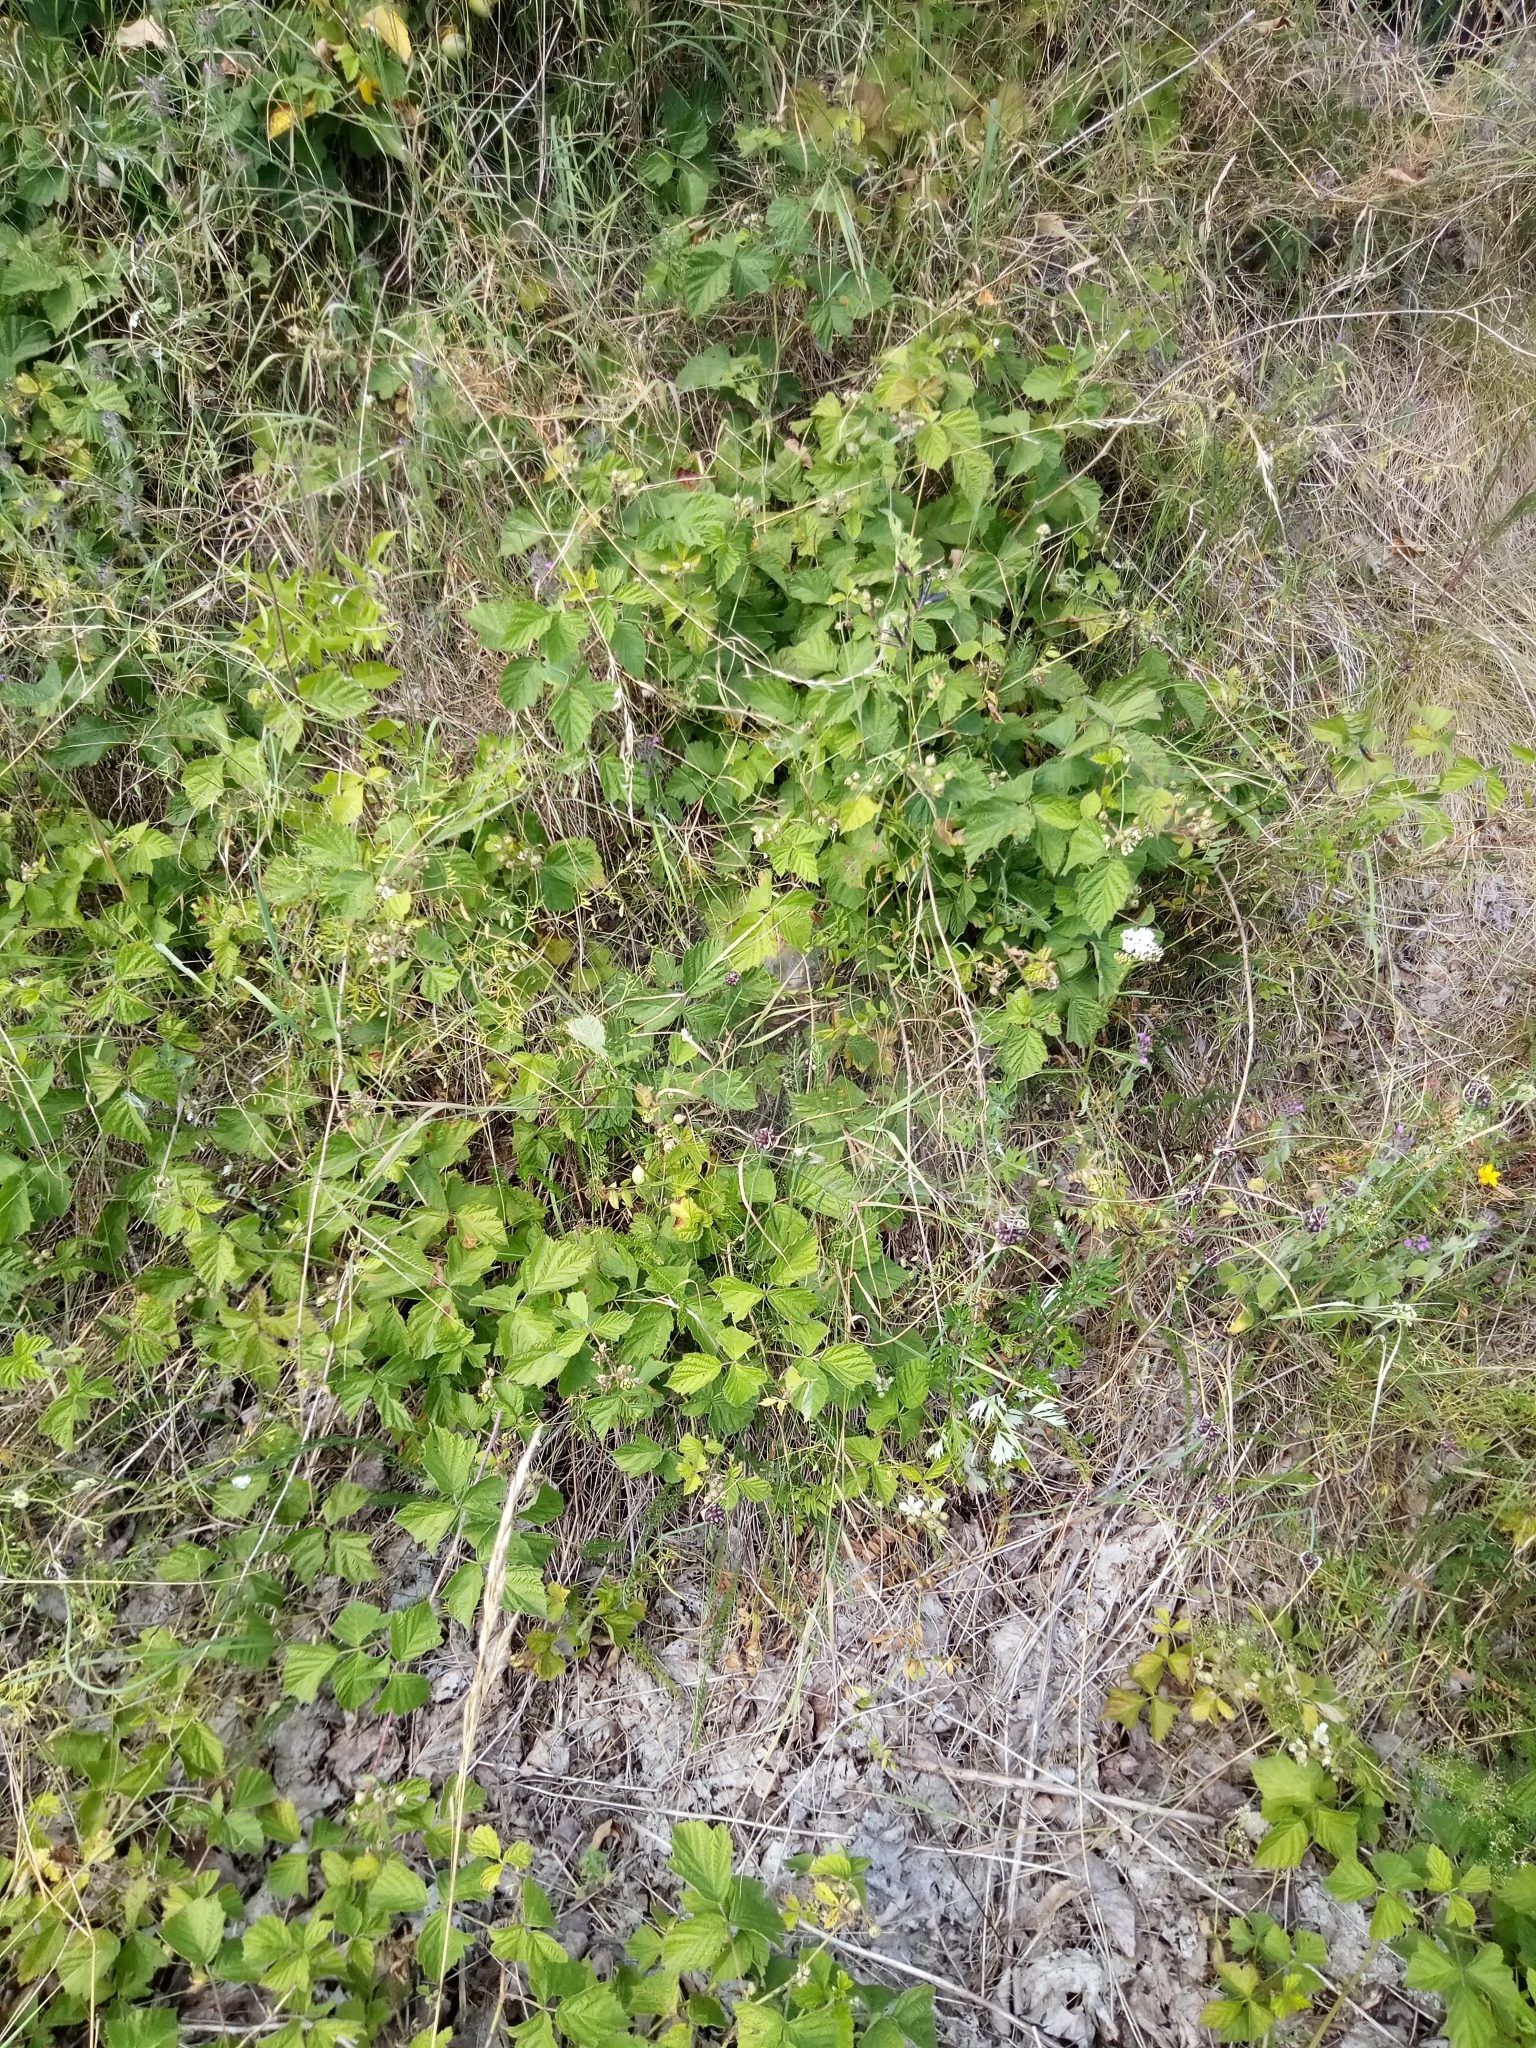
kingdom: Plantae
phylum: Tracheophyta
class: Magnoliopsida
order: Rosales
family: Rosaceae
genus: Rubus
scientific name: Rubus caesius
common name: Dewberry
